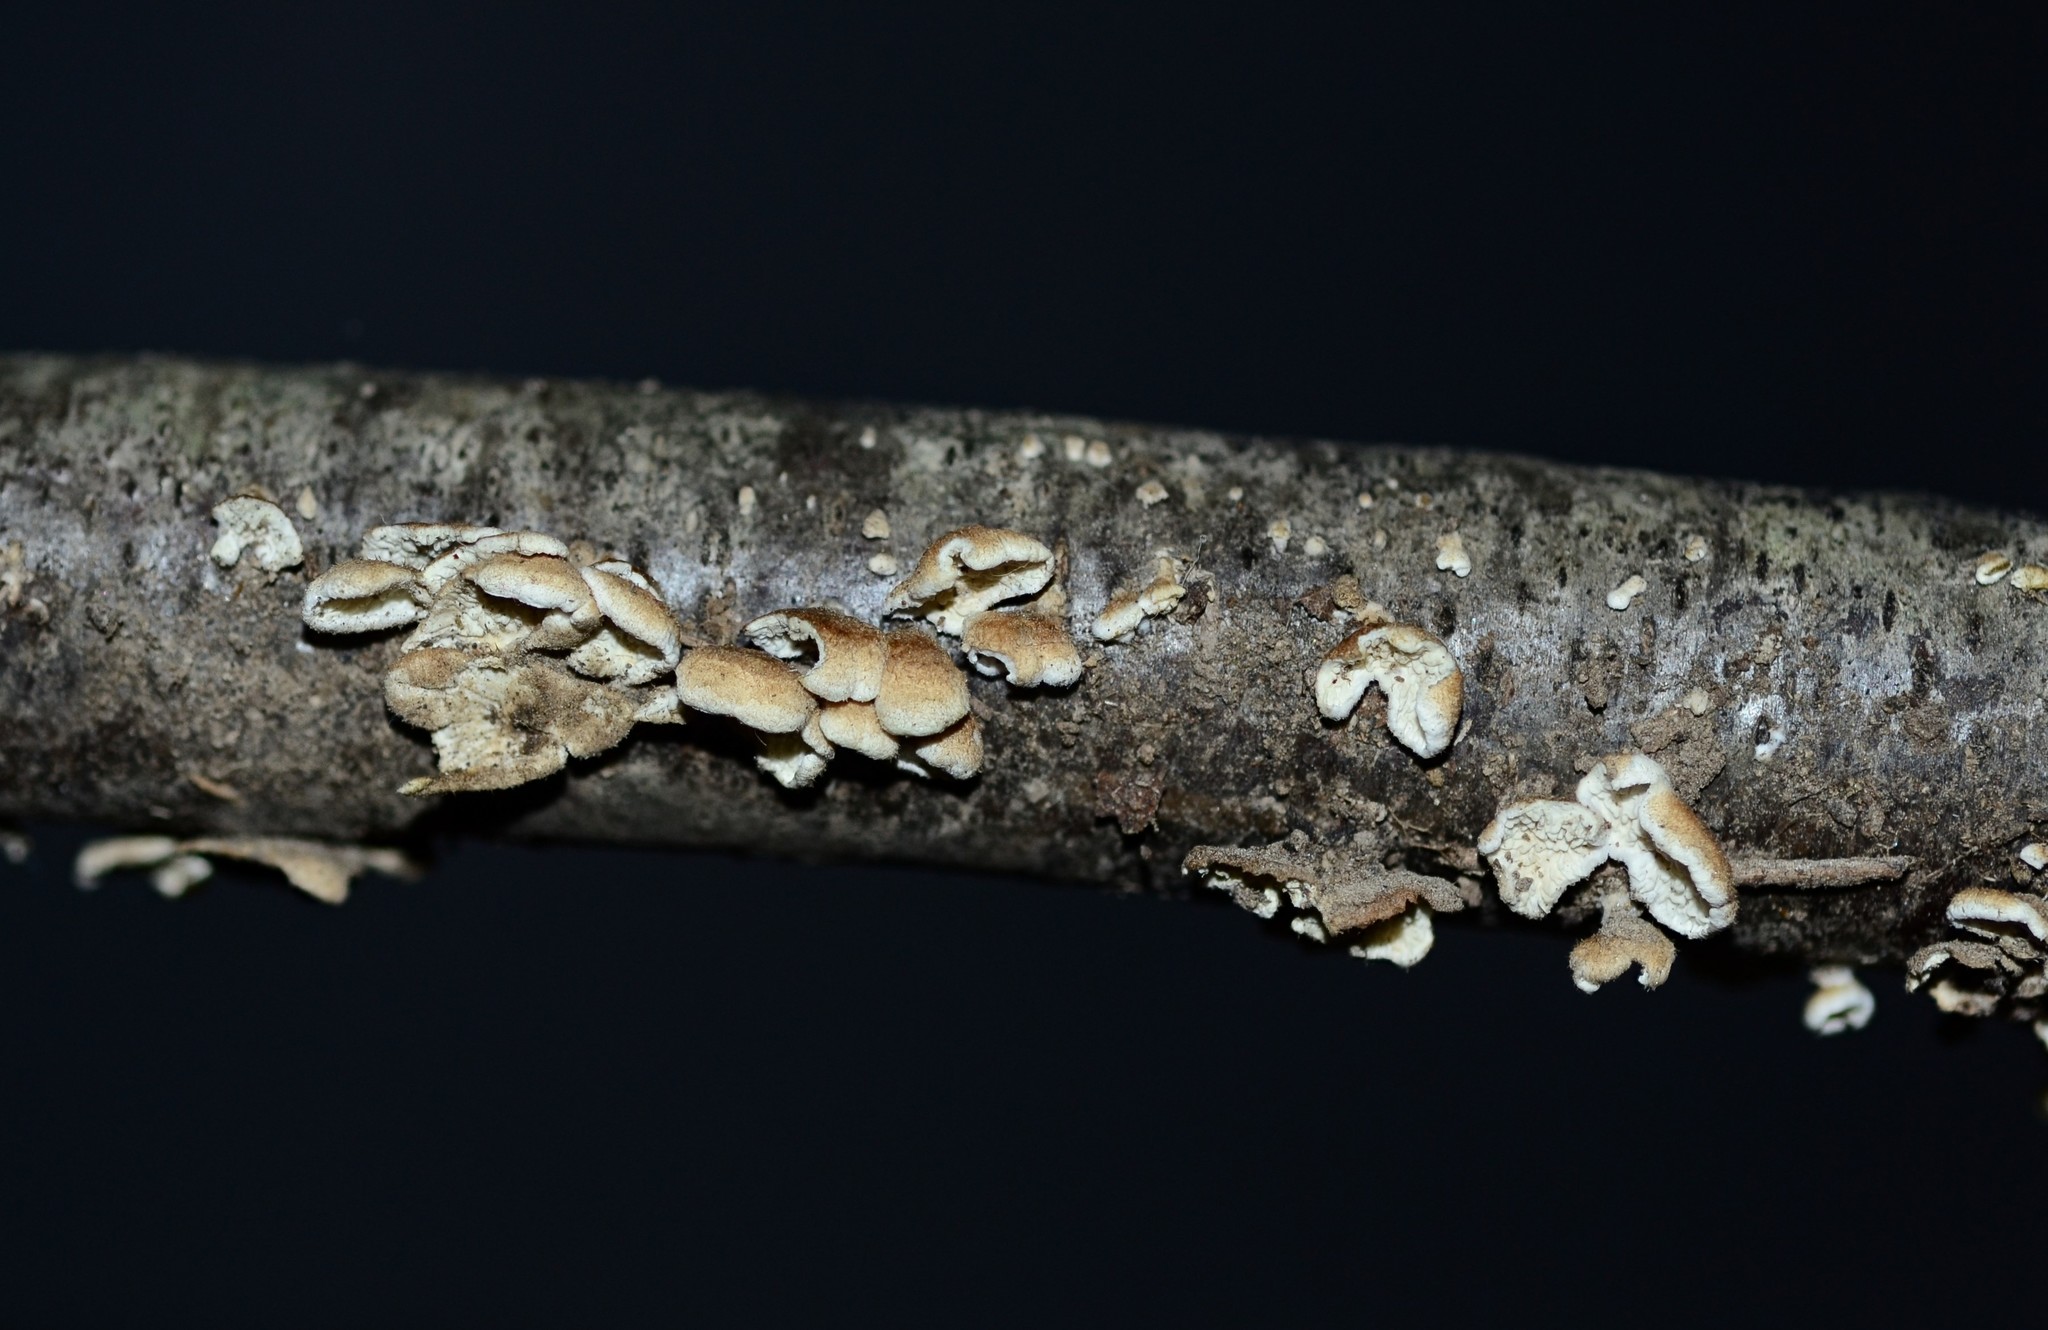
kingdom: Fungi
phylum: Basidiomycota
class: Agaricomycetes
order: Amylocorticiales
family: Amylocorticiaceae
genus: Plicaturopsis
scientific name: Plicaturopsis crispa
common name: Crimped gill
